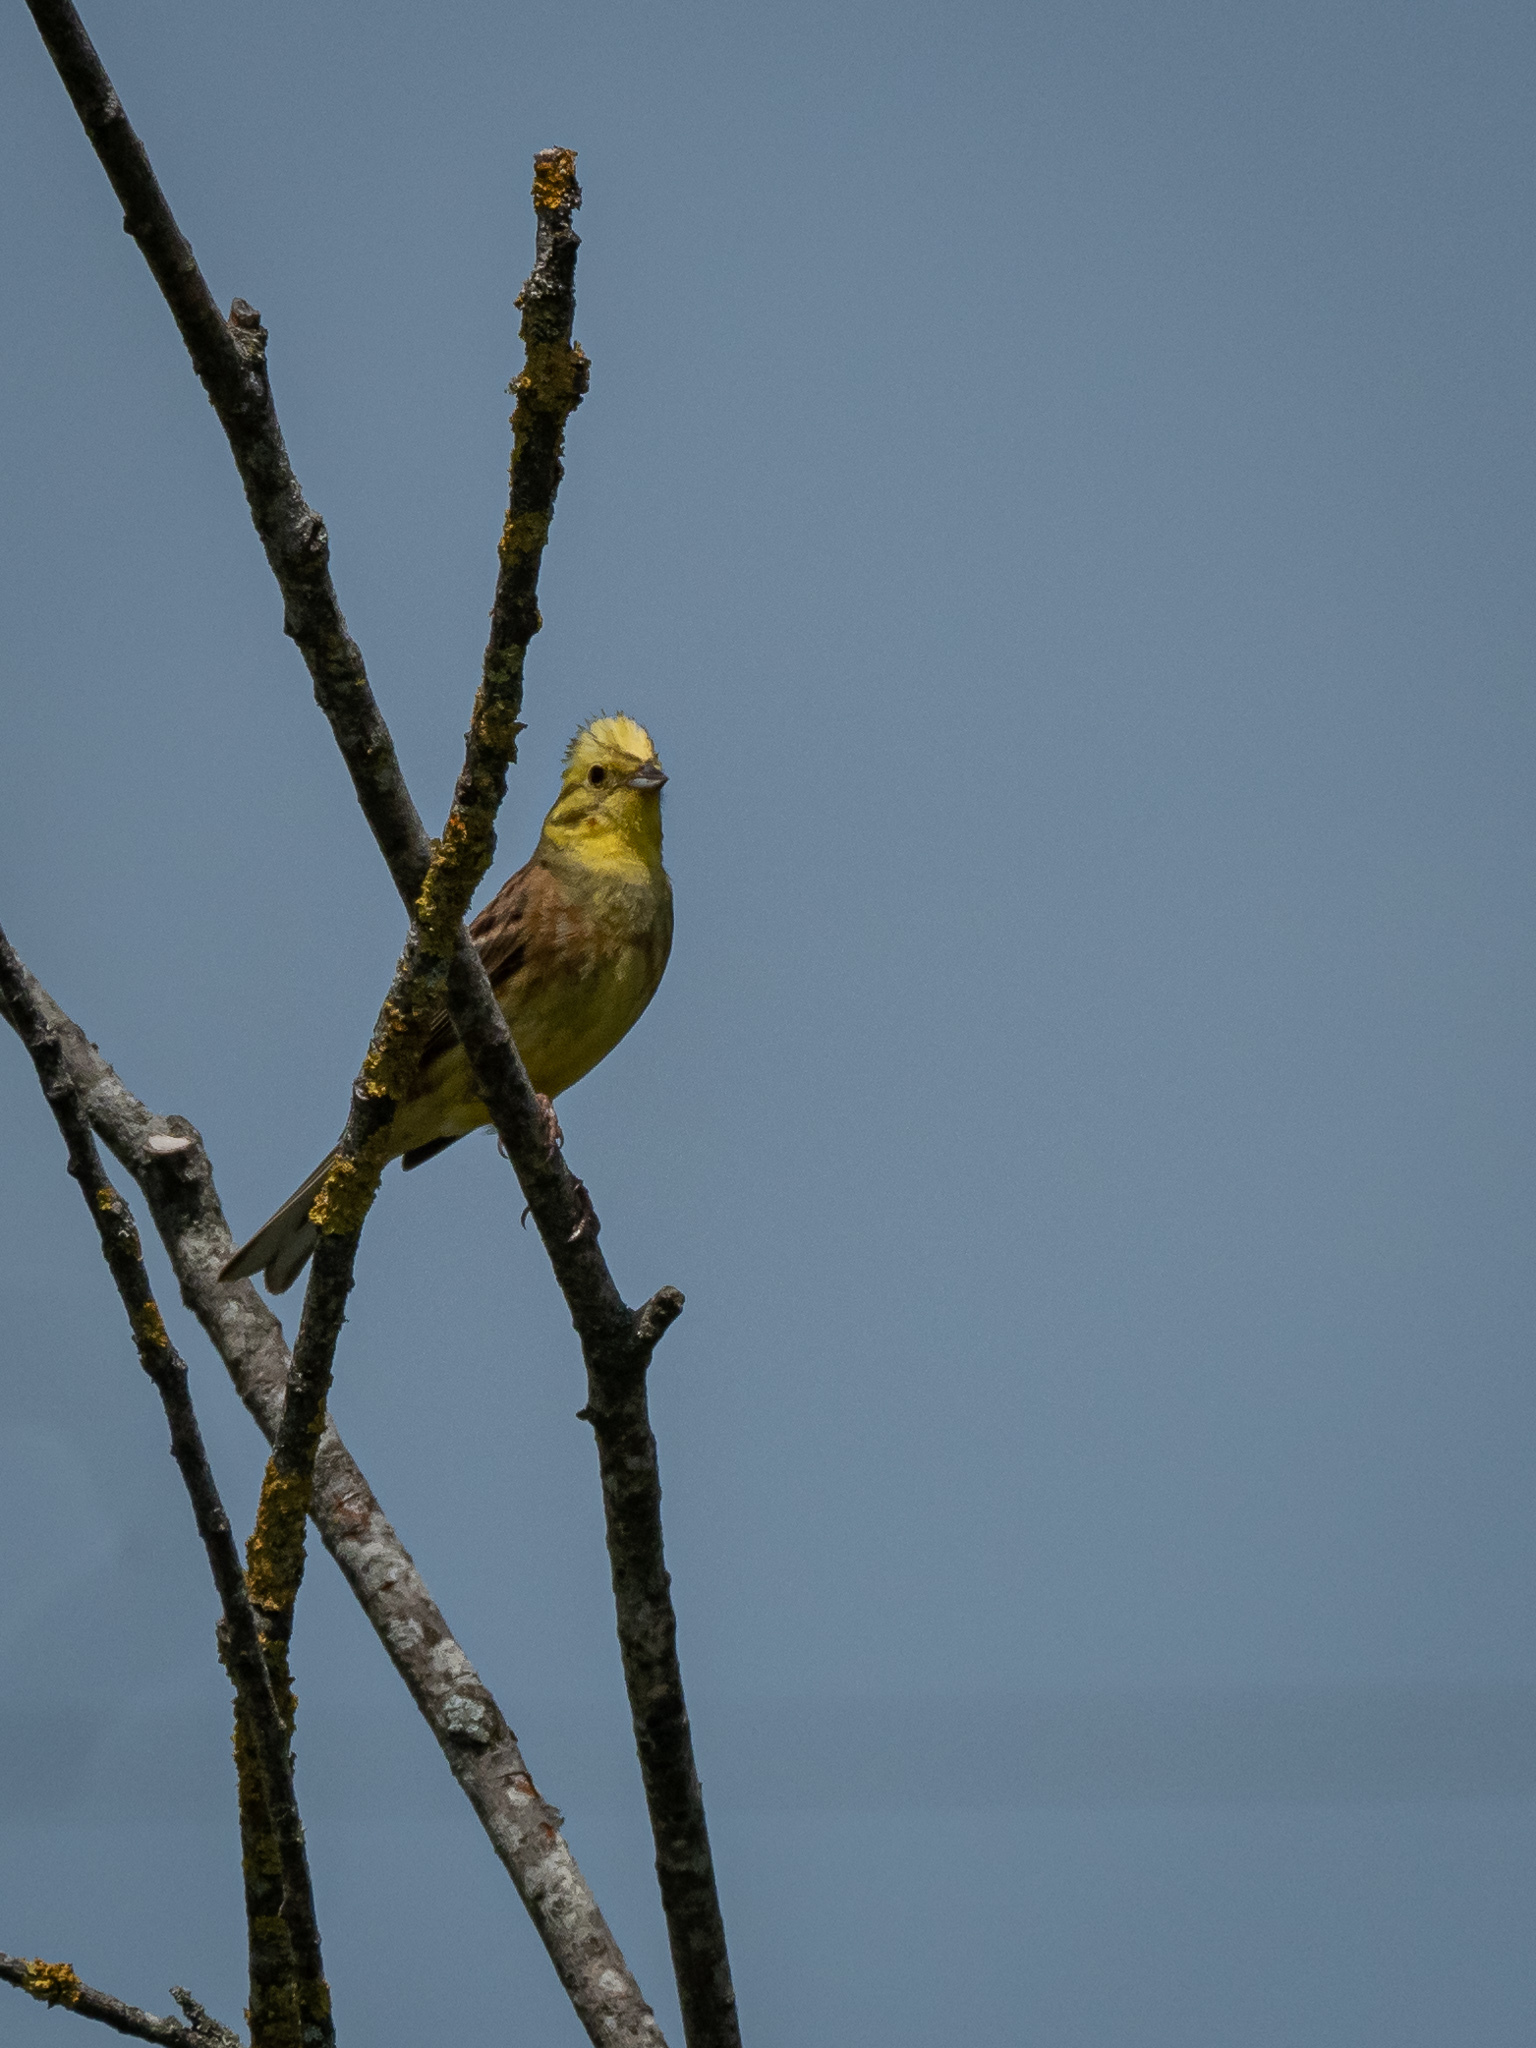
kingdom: Animalia
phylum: Chordata
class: Aves
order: Passeriformes
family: Emberizidae
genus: Emberiza
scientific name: Emberiza citrinella
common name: Yellowhammer
